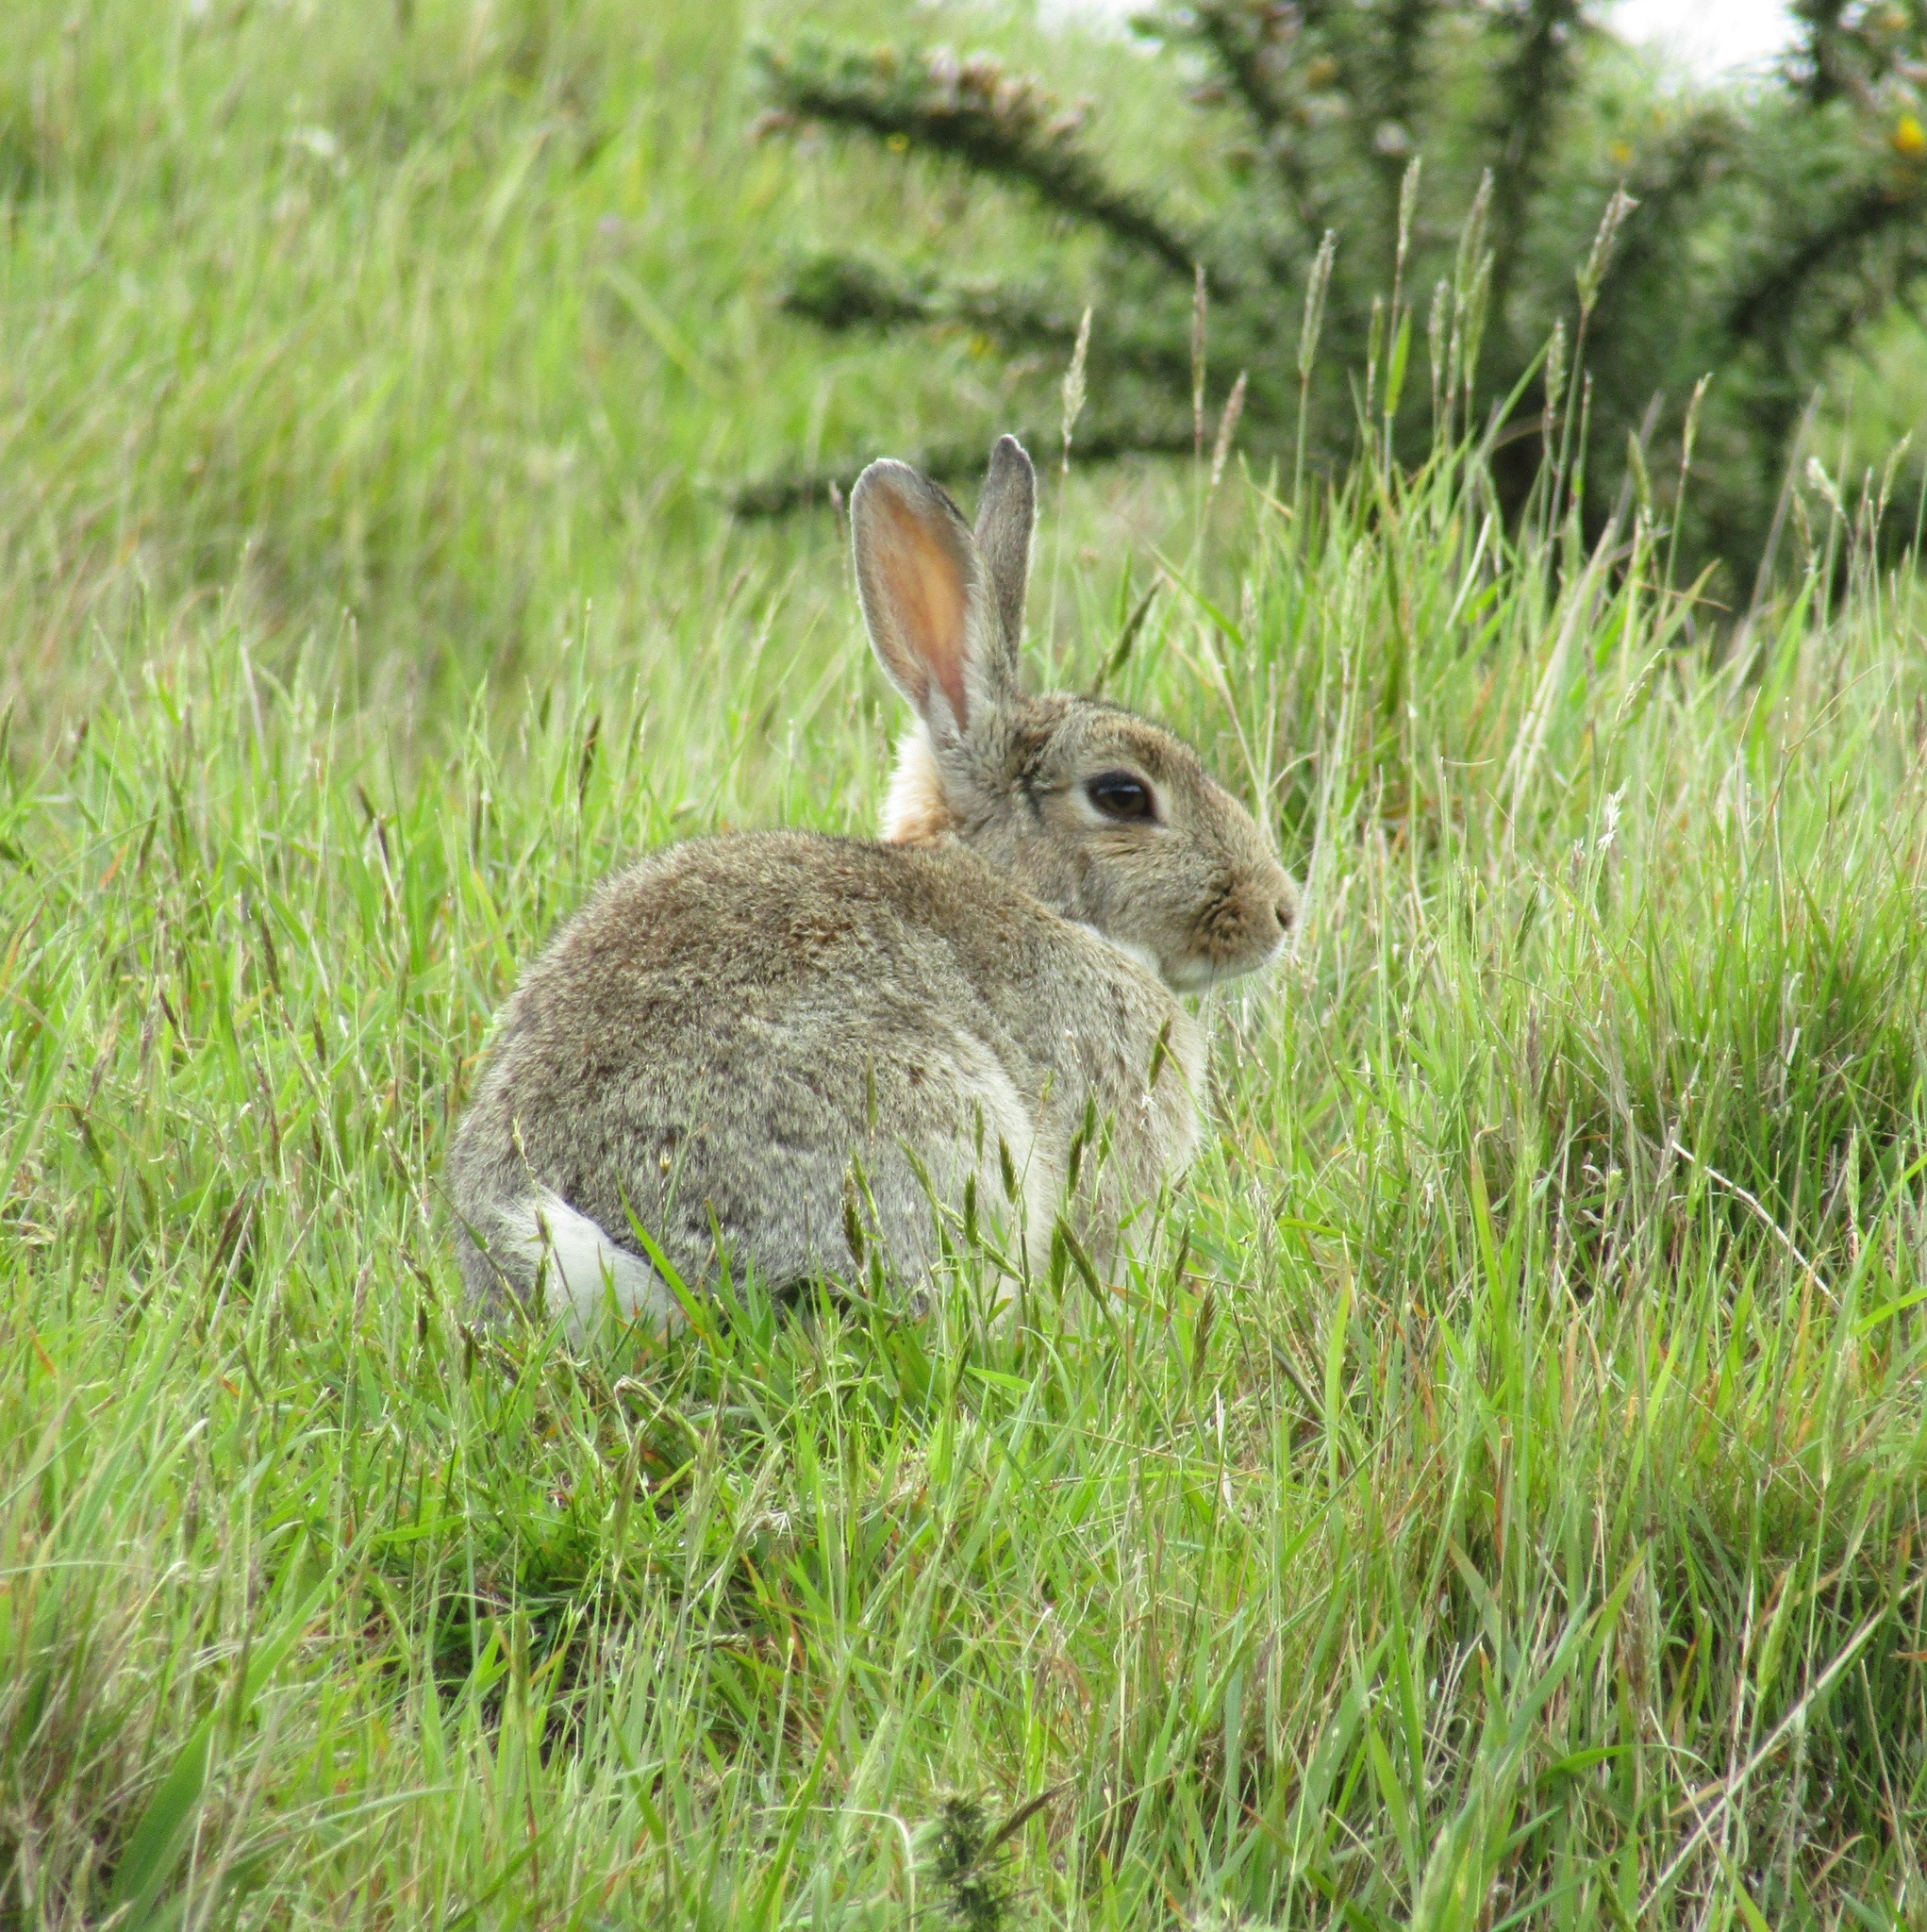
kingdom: Animalia
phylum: Chordata
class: Mammalia
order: Lagomorpha
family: Leporidae
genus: Oryctolagus
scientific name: Oryctolagus cuniculus
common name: European rabbit
